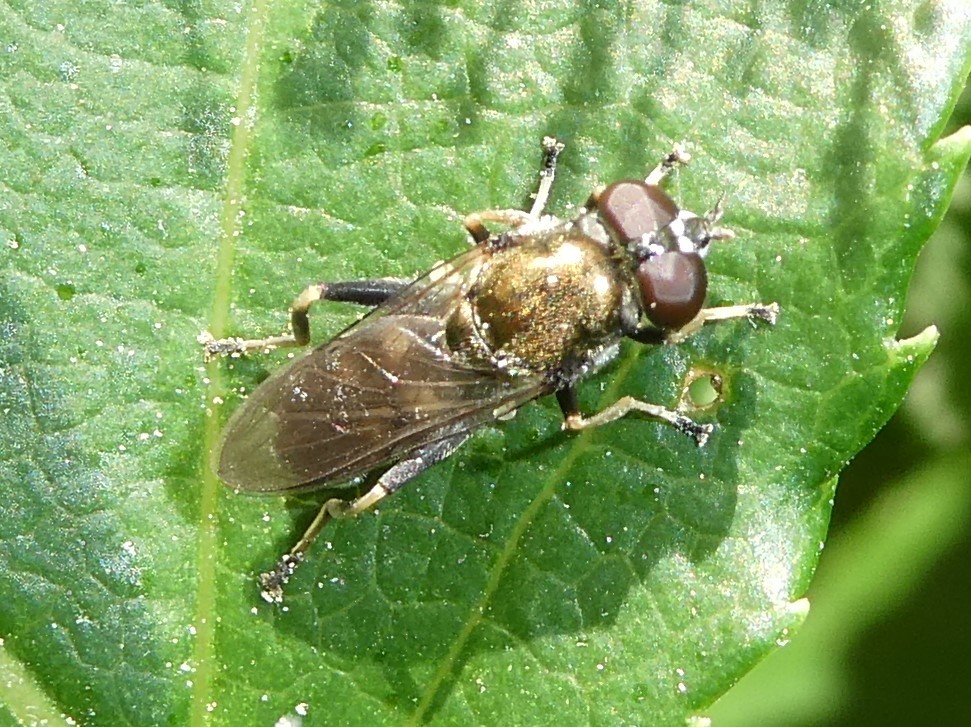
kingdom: Animalia
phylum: Arthropoda
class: Insecta
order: Diptera
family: Syrphidae
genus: Xylota
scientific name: Xylota
